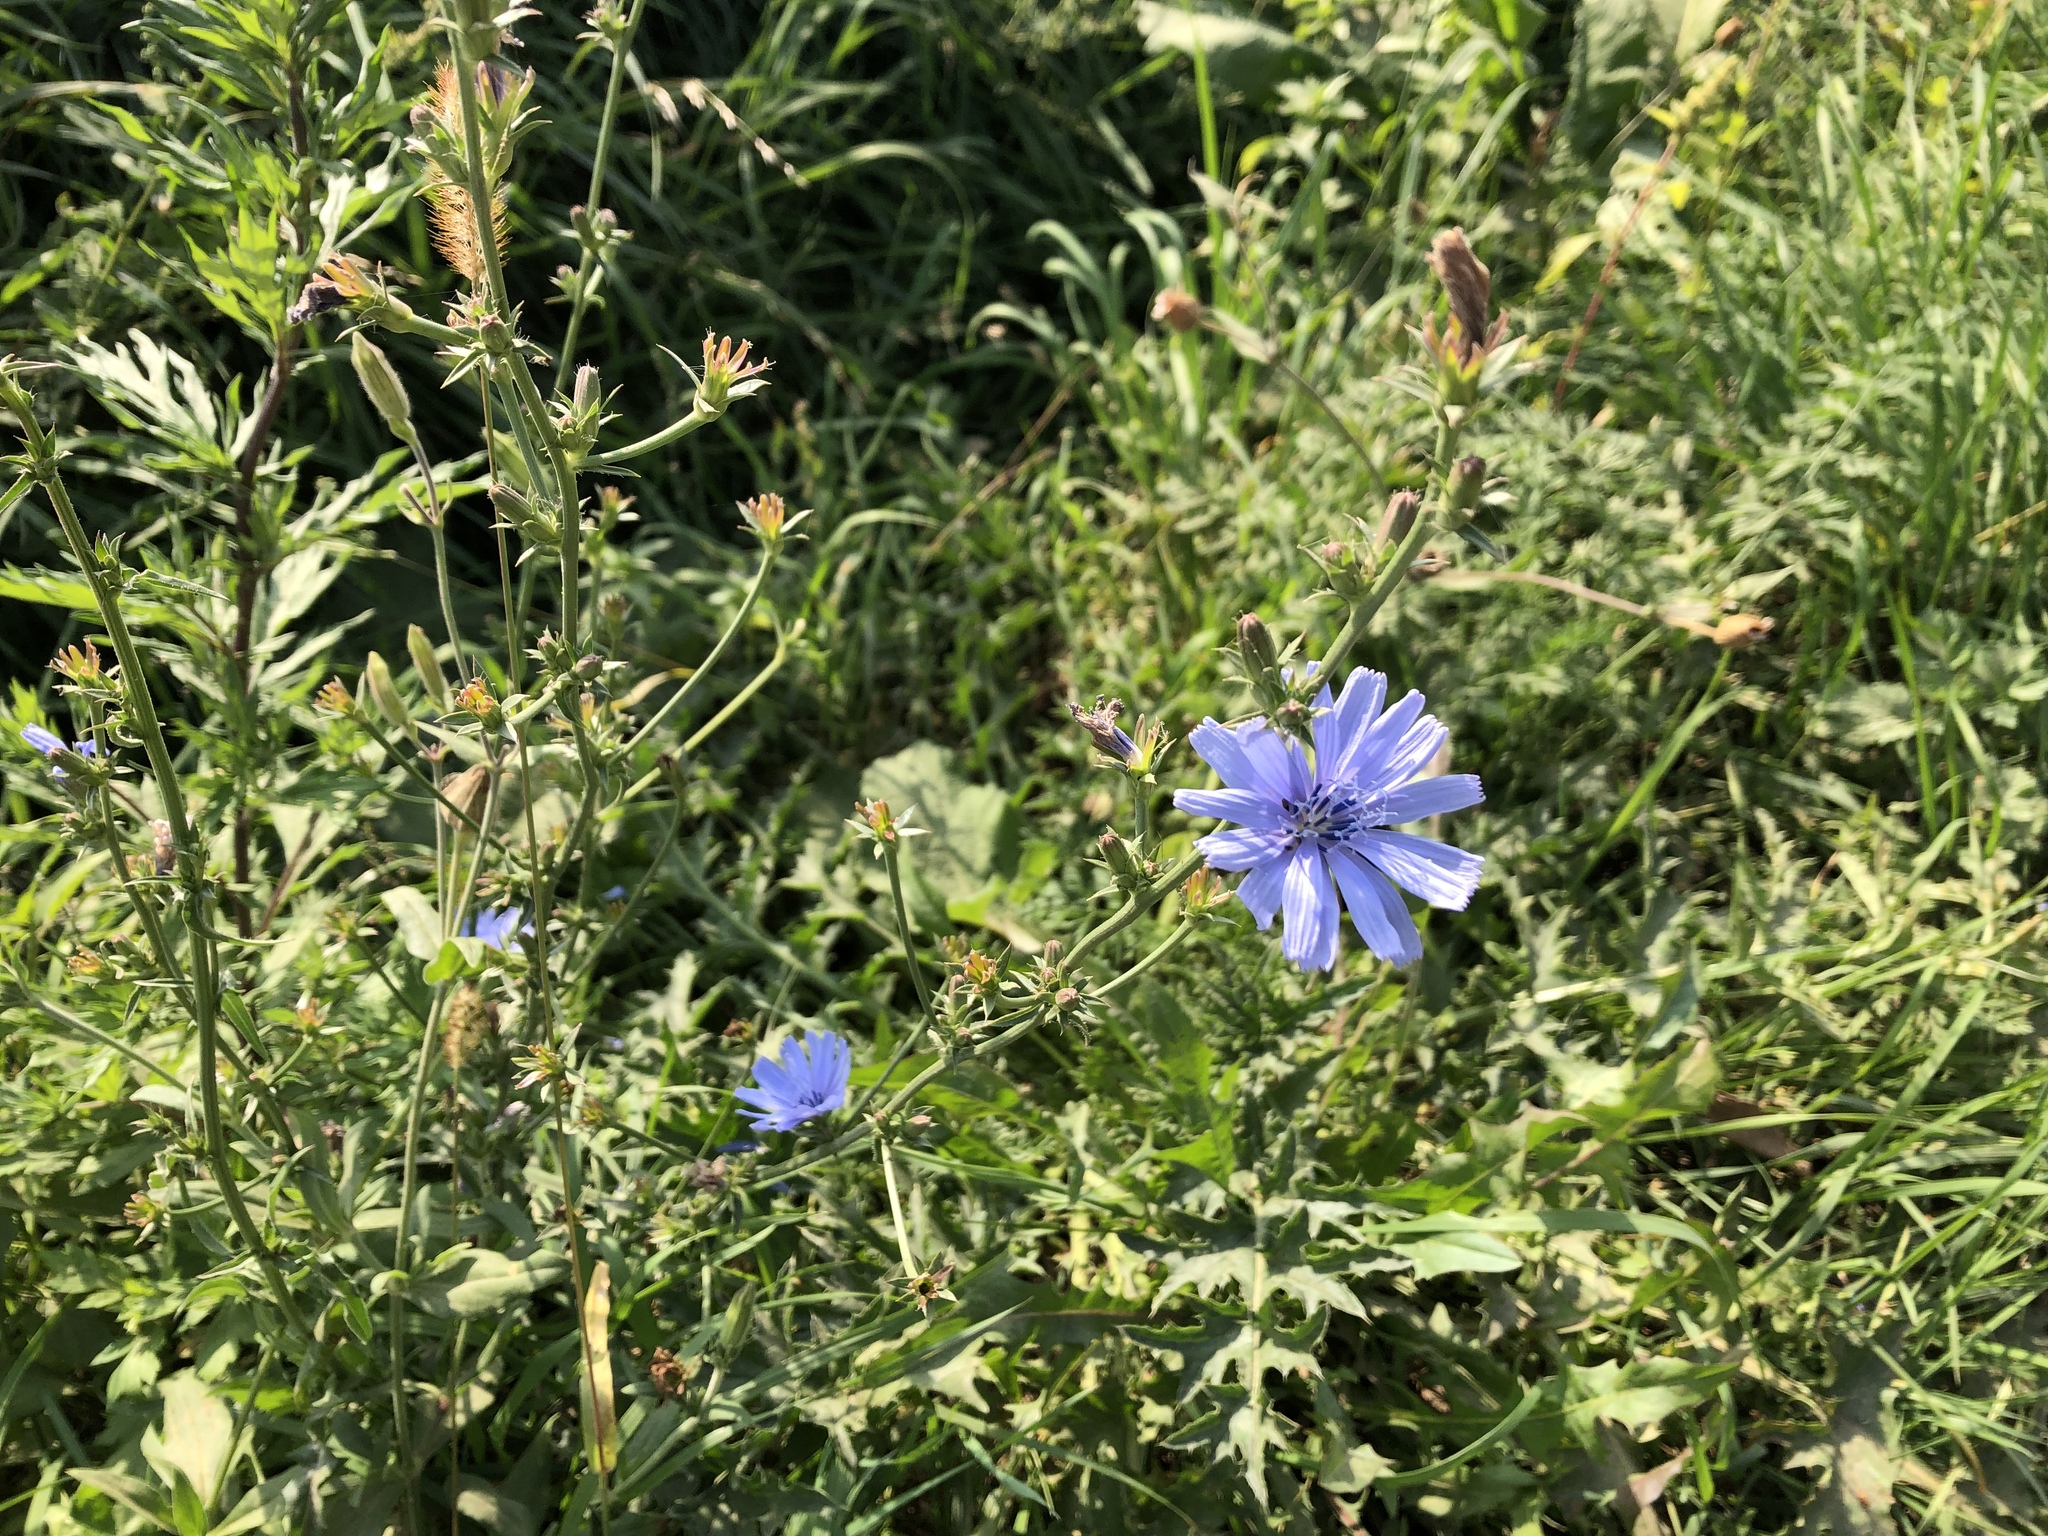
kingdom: Plantae
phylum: Tracheophyta
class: Magnoliopsida
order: Asterales
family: Asteraceae
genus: Cichorium
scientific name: Cichorium intybus
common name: Chicory
